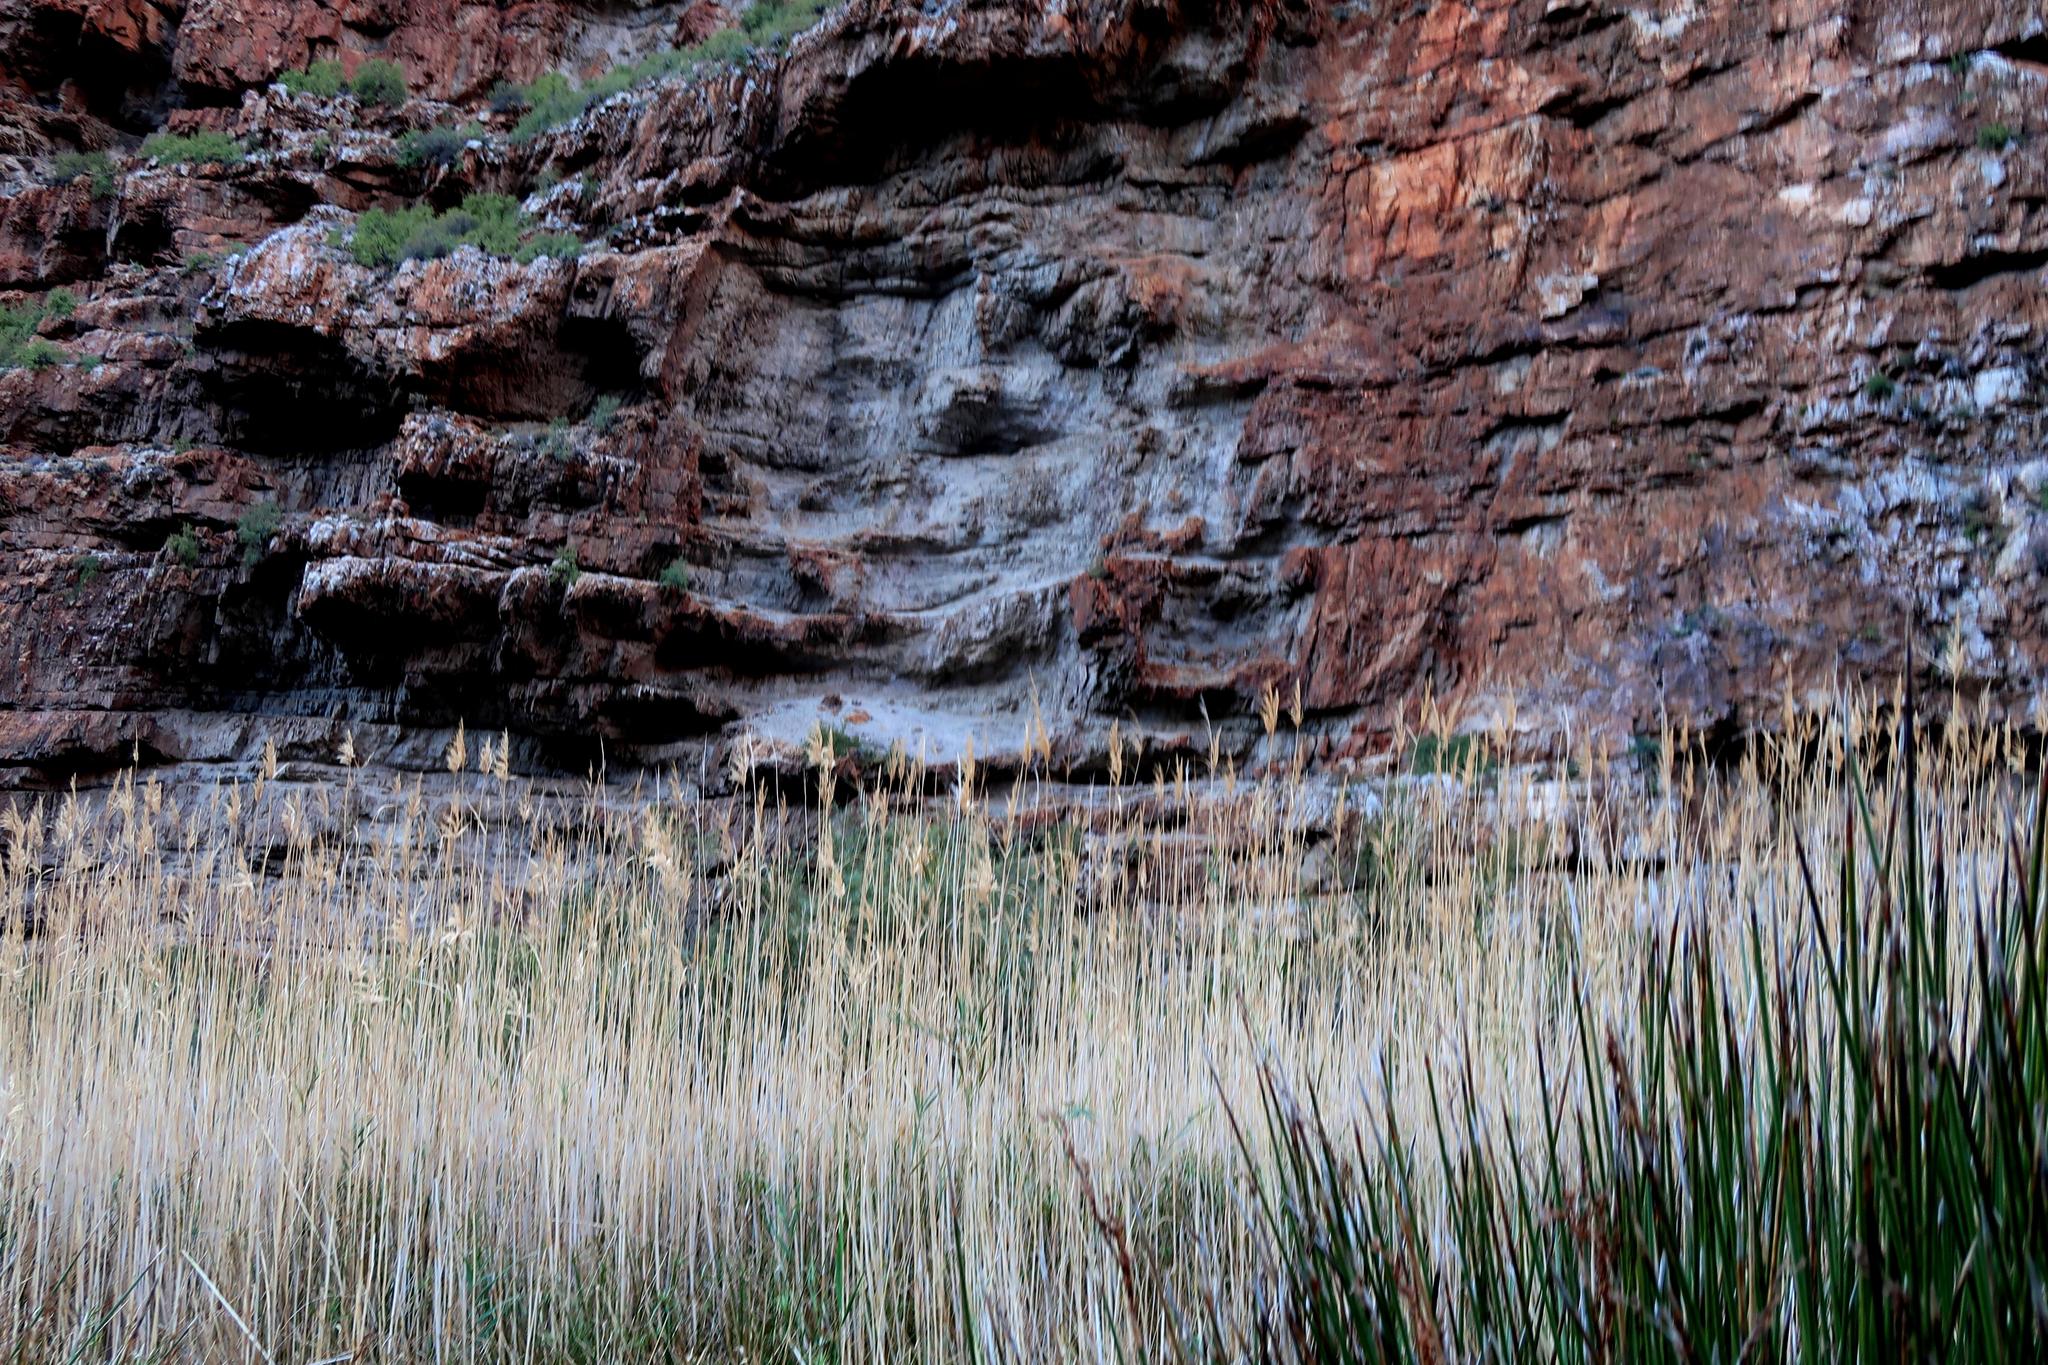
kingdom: Plantae
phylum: Tracheophyta
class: Liliopsida
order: Poales
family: Poaceae
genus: Phragmites
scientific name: Phragmites australis
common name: Common reed
